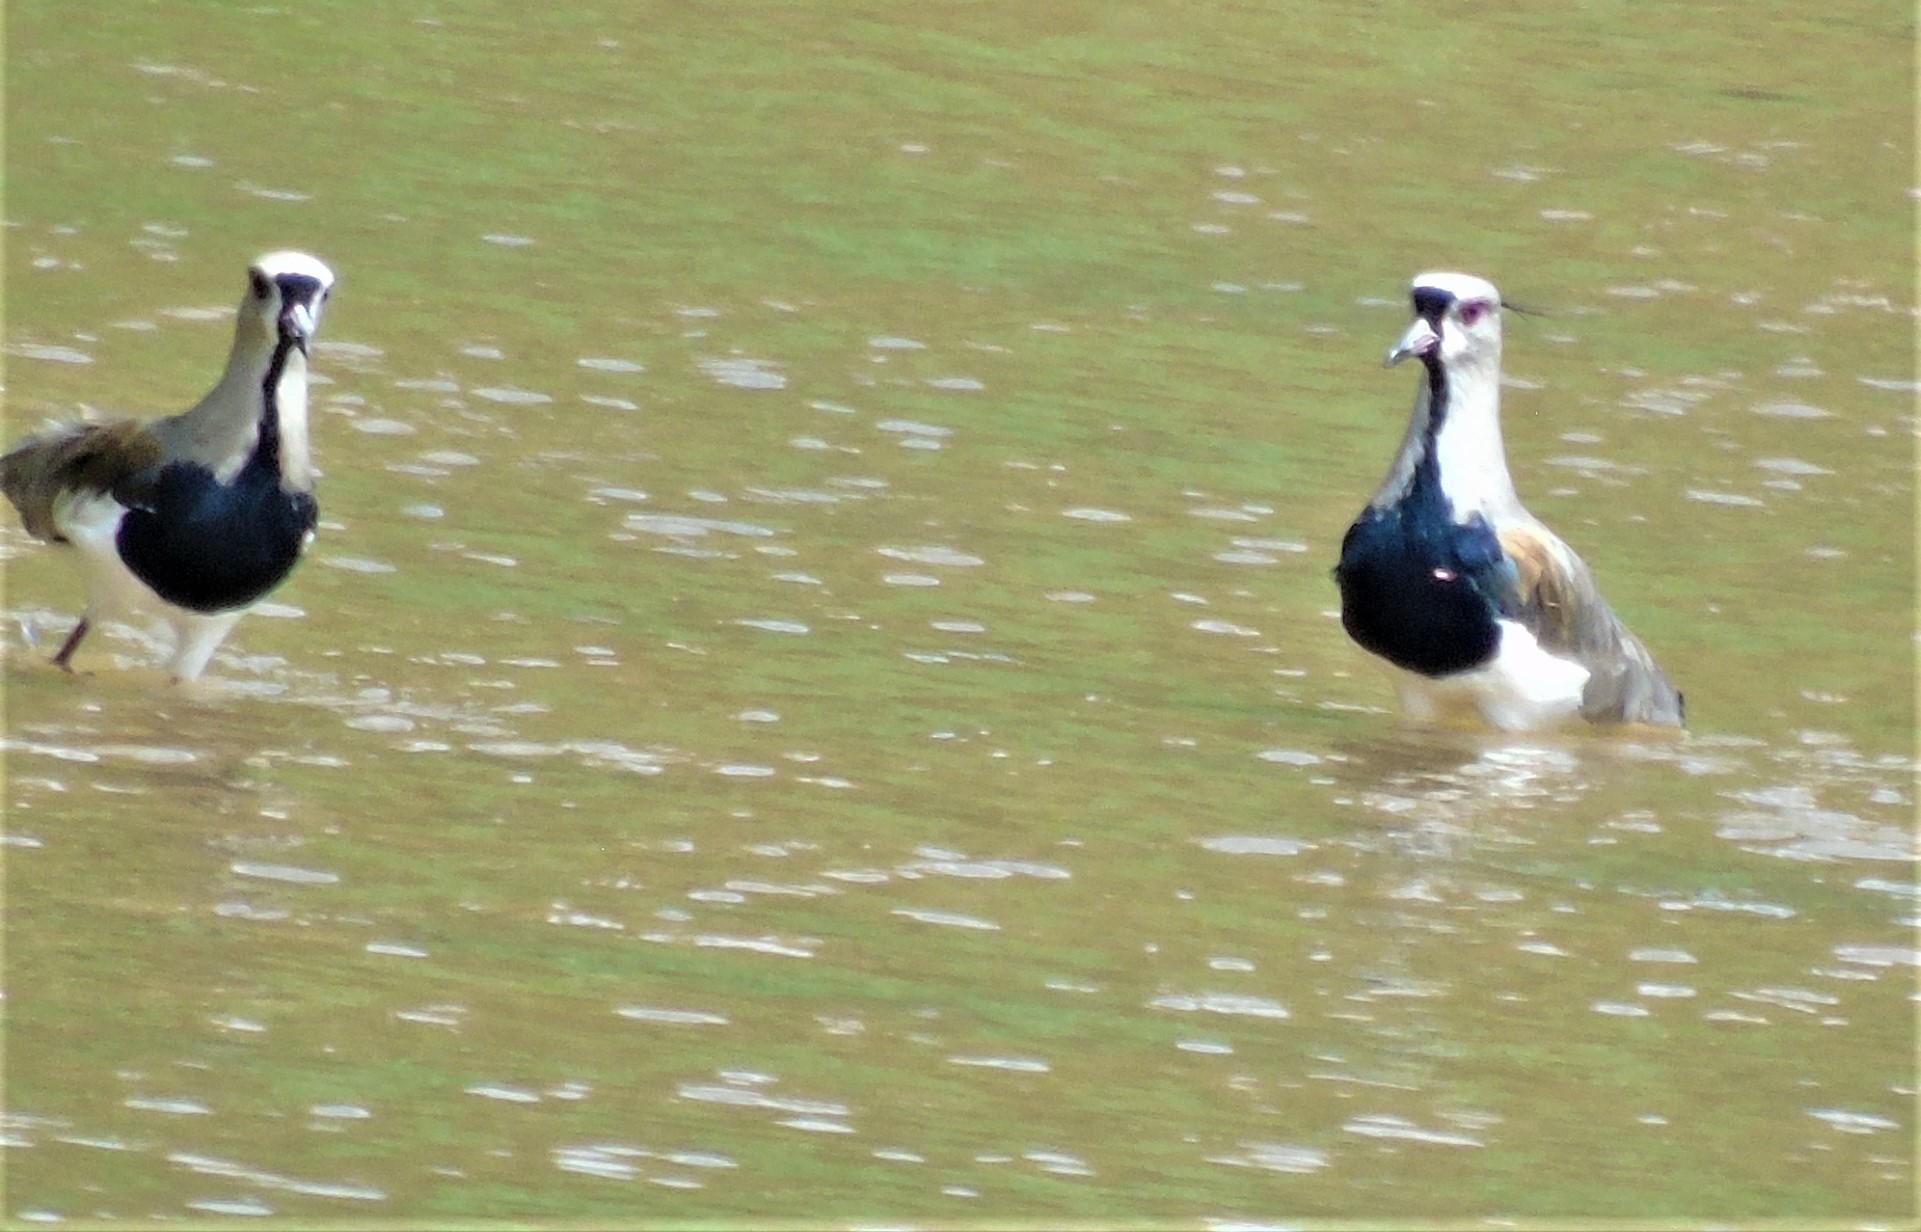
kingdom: Animalia
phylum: Chordata
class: Aves
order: Charadriiformes
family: Charadriidae
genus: Vanellus
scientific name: Vanellus chilensis
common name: Southern lapwing
